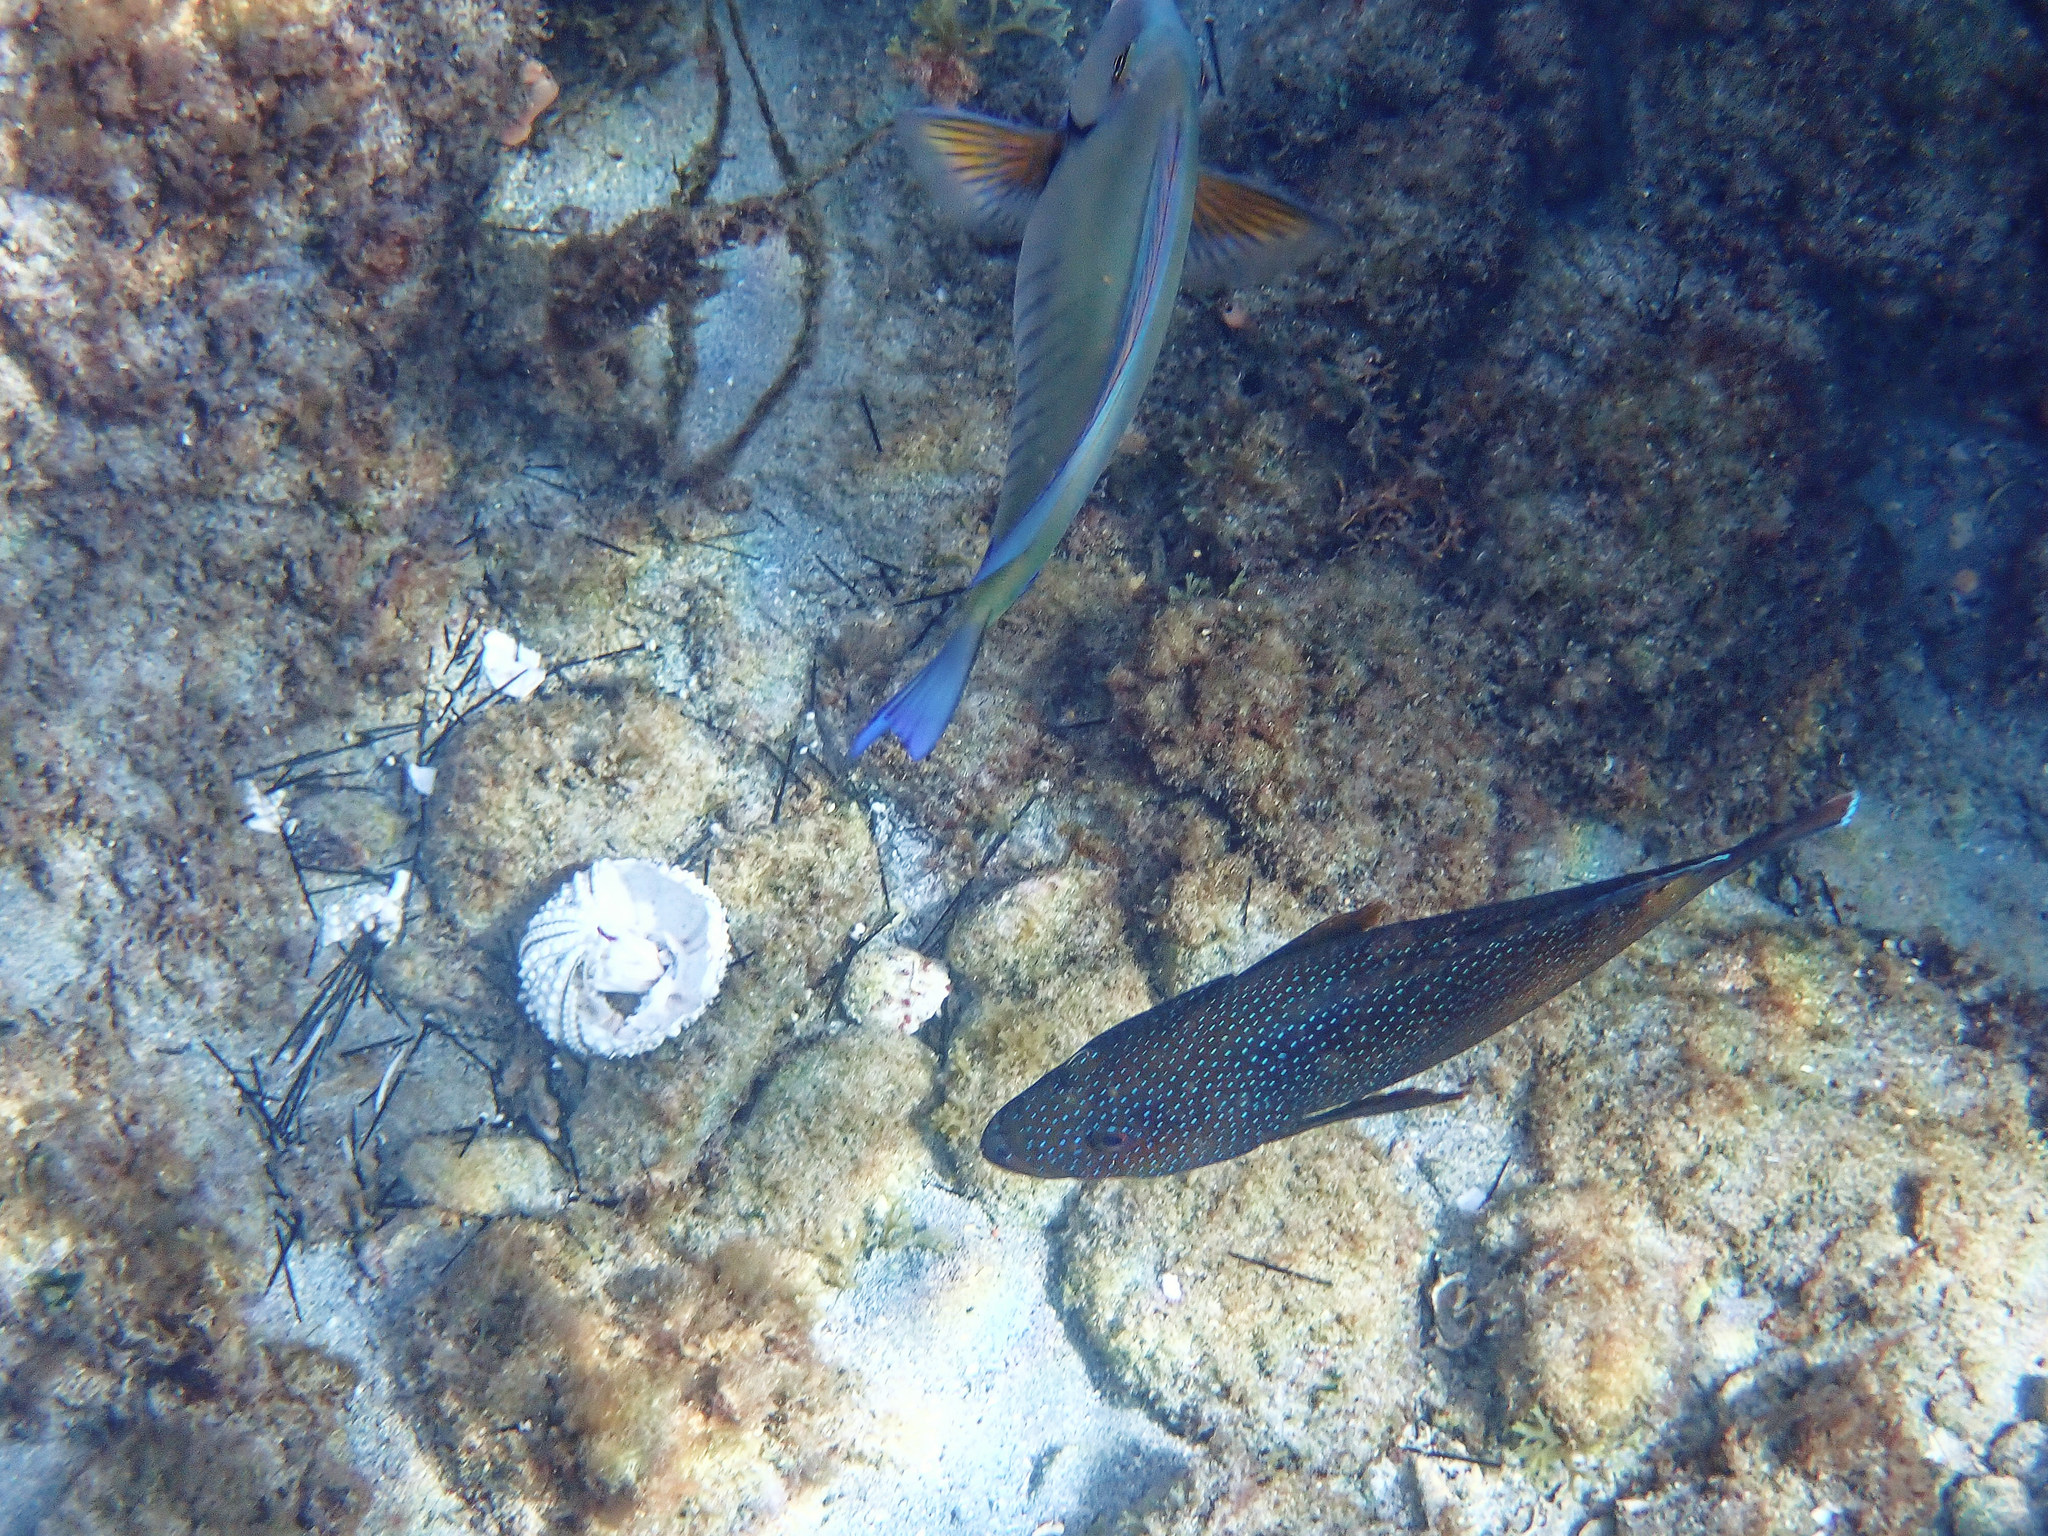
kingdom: Animalia
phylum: Chordata
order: Perciformes
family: Serranidae
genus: Cephalopholis
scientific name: Cephalopholis fulva
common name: Butterfish
